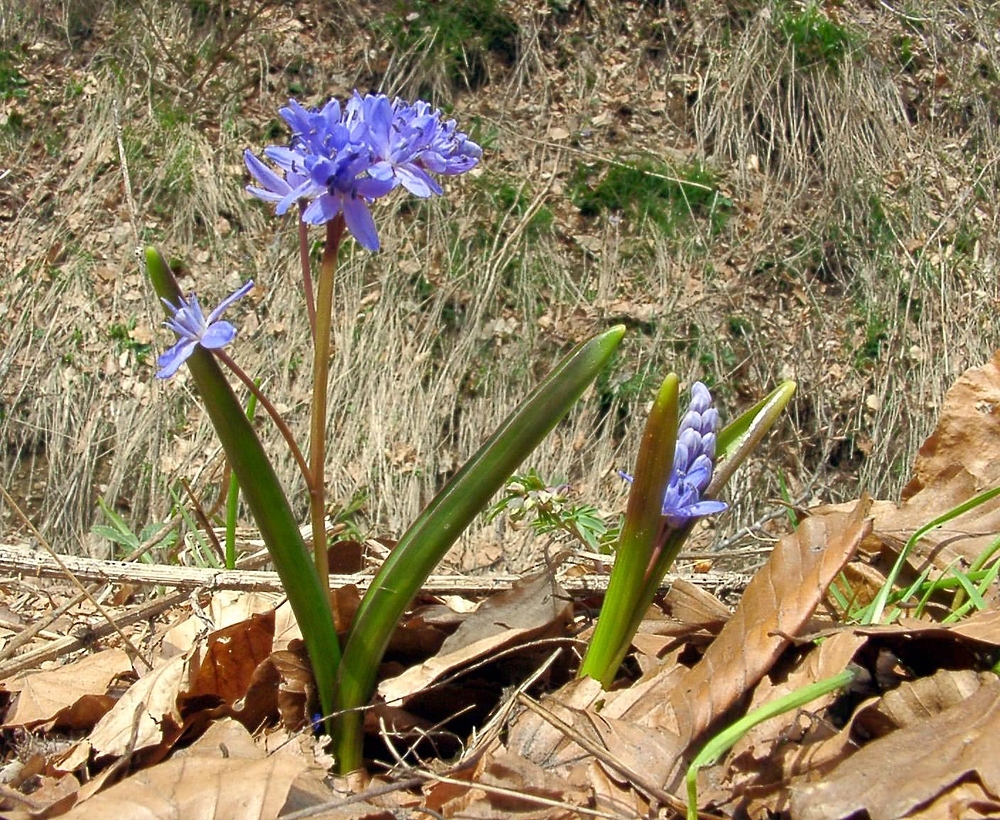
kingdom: Plantae
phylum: Tracheophyta
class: Liliopsida
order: Asparagales
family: Asparagaceae
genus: Scilla
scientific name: Scilla bifolia
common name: Alpine squill
